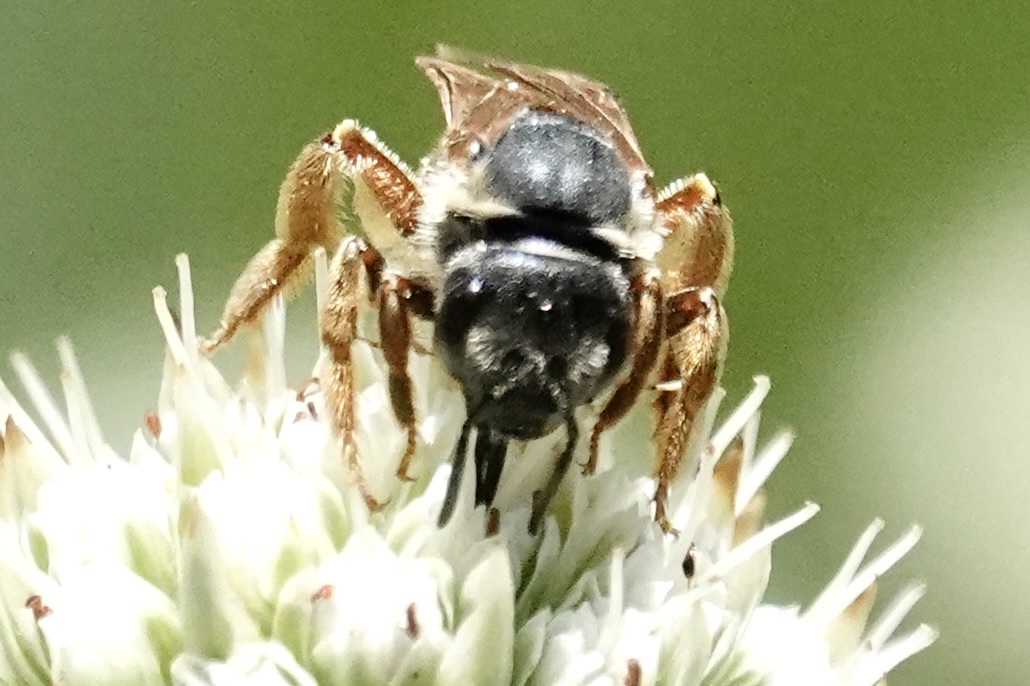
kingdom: Animalia
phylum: Arthropoda
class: Insecta
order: Hymenoptera
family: Halictidae
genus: Halictus
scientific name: Halictus parallelus
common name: Parallel-striped sweat bee
